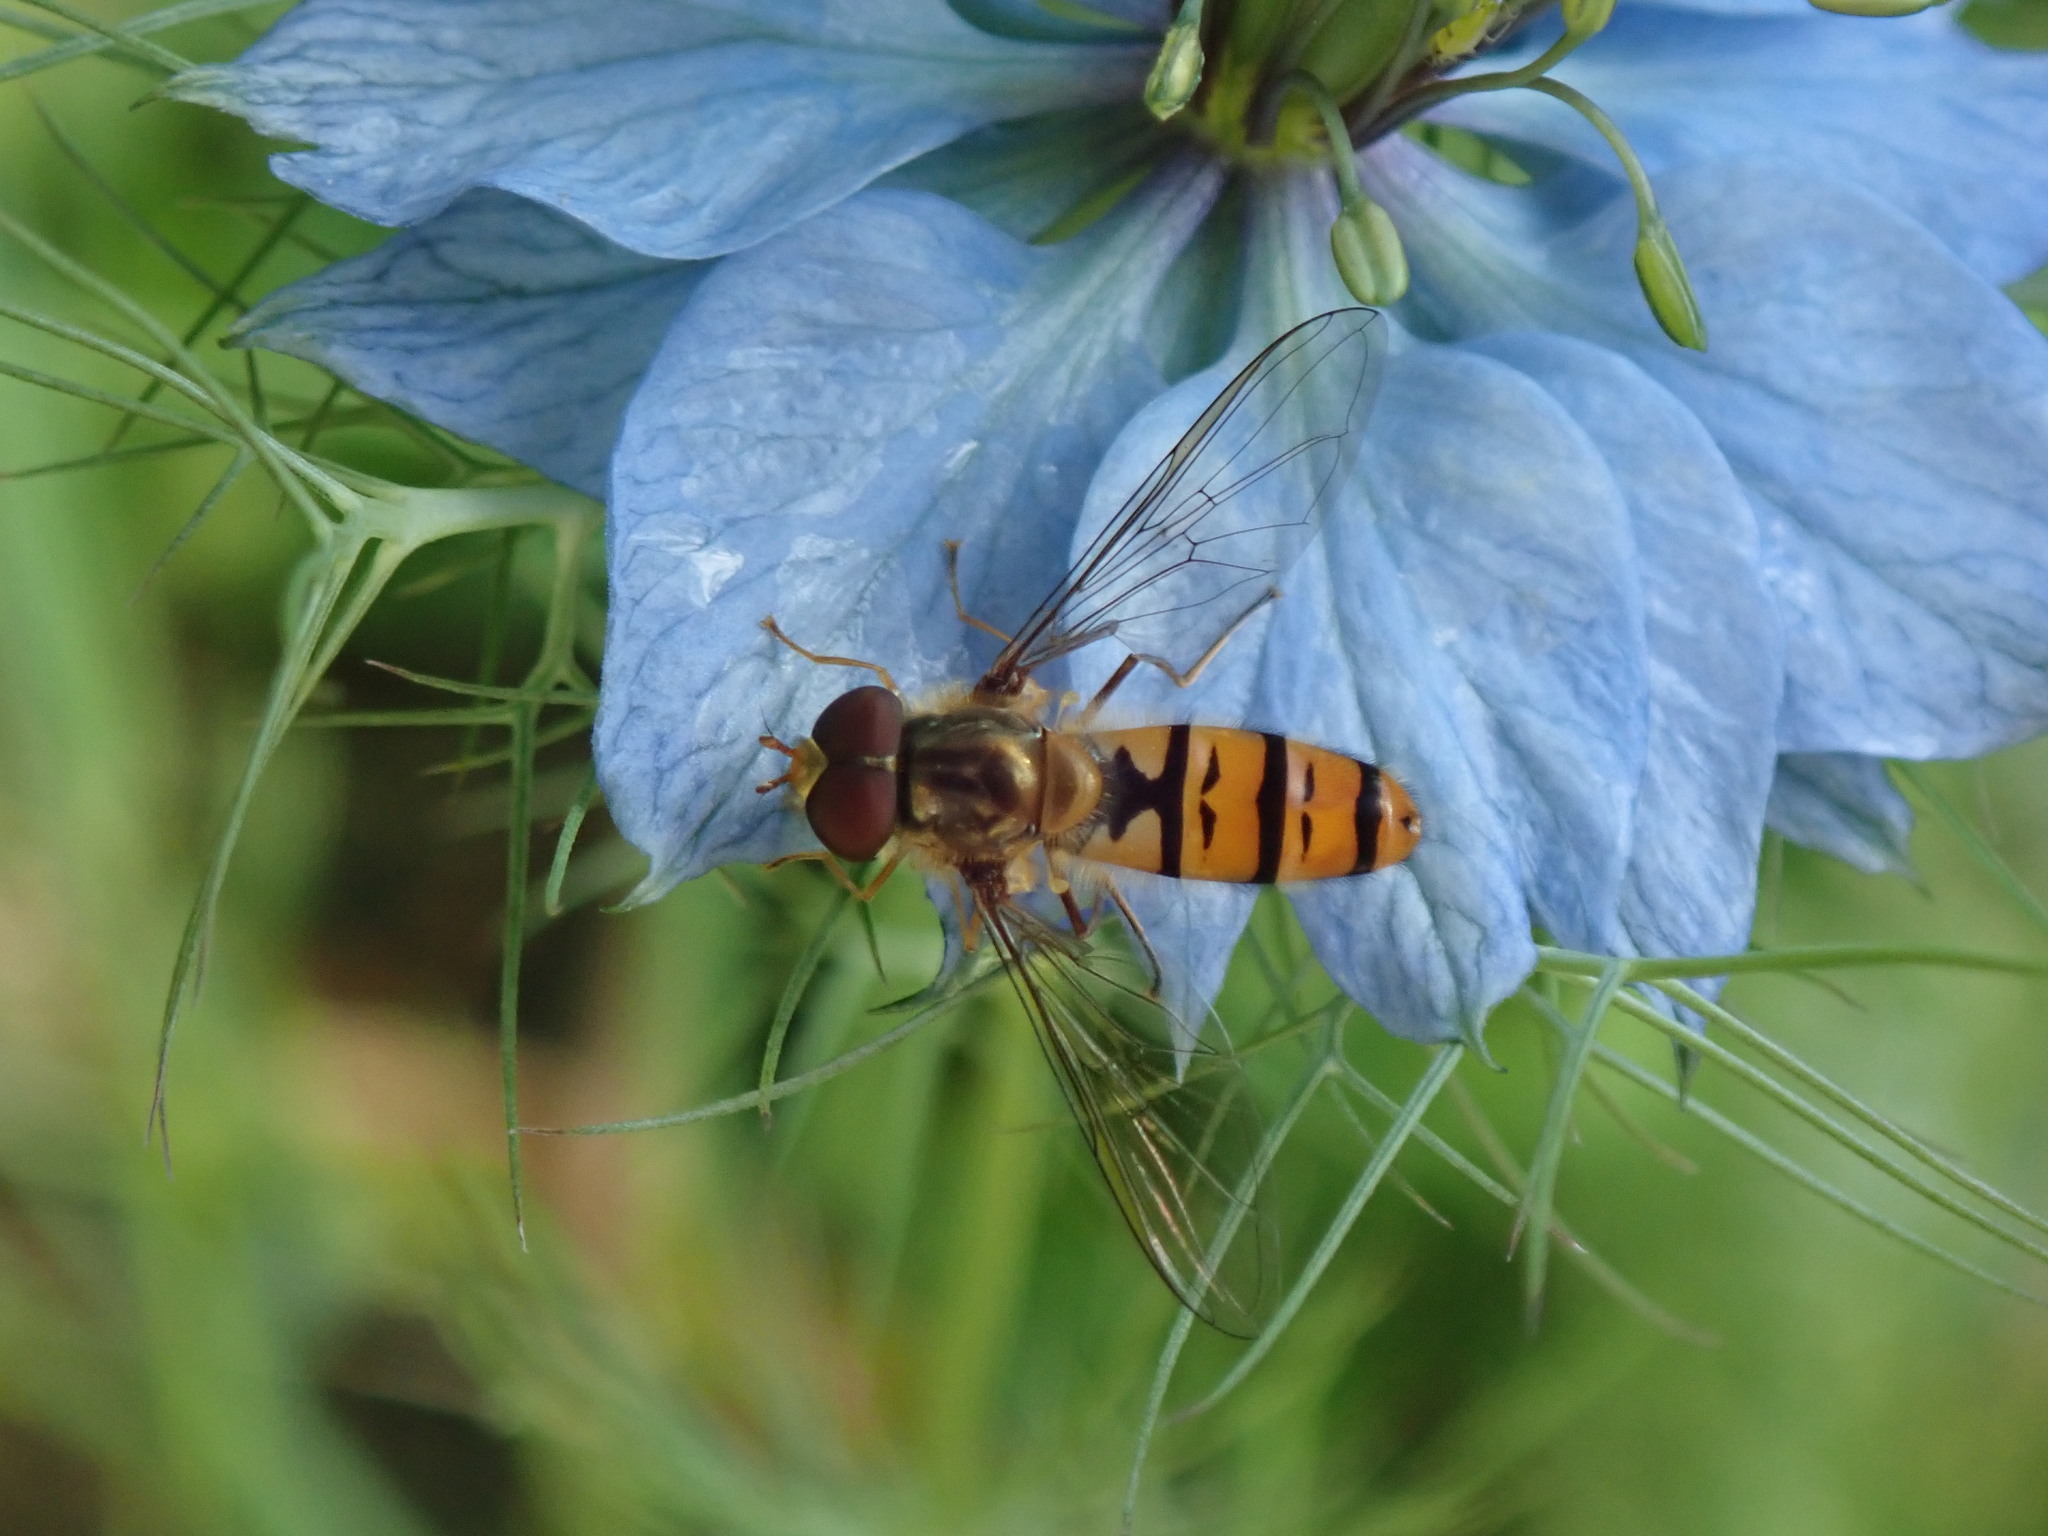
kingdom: Animalia
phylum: Arthropoda
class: Insecta
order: Diptera
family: Syrphidae
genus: Episyrphus
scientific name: Episyrphus balteatus
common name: Marmalade hoverfly
